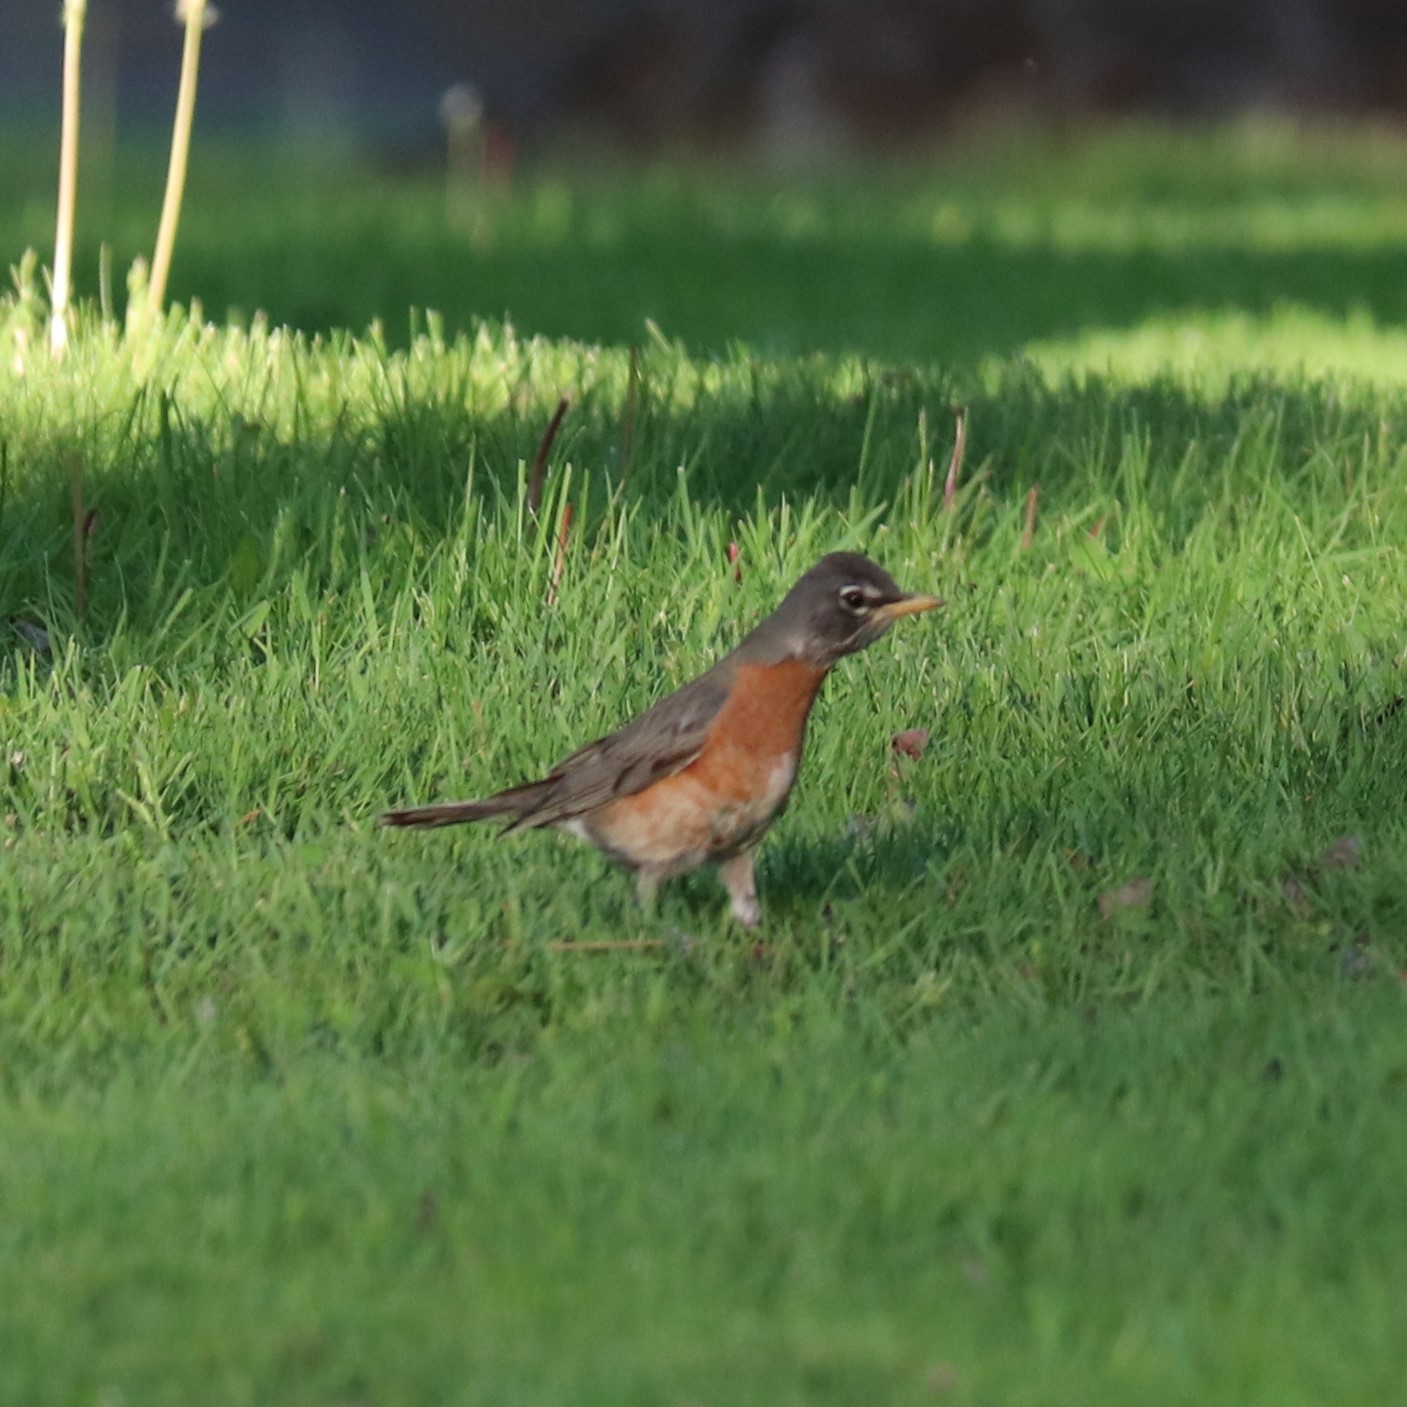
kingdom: Animalia
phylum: Chordata
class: Aves
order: Passeriformes
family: Turdidae
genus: Turdus
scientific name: Turdus migratorius
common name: American robin
